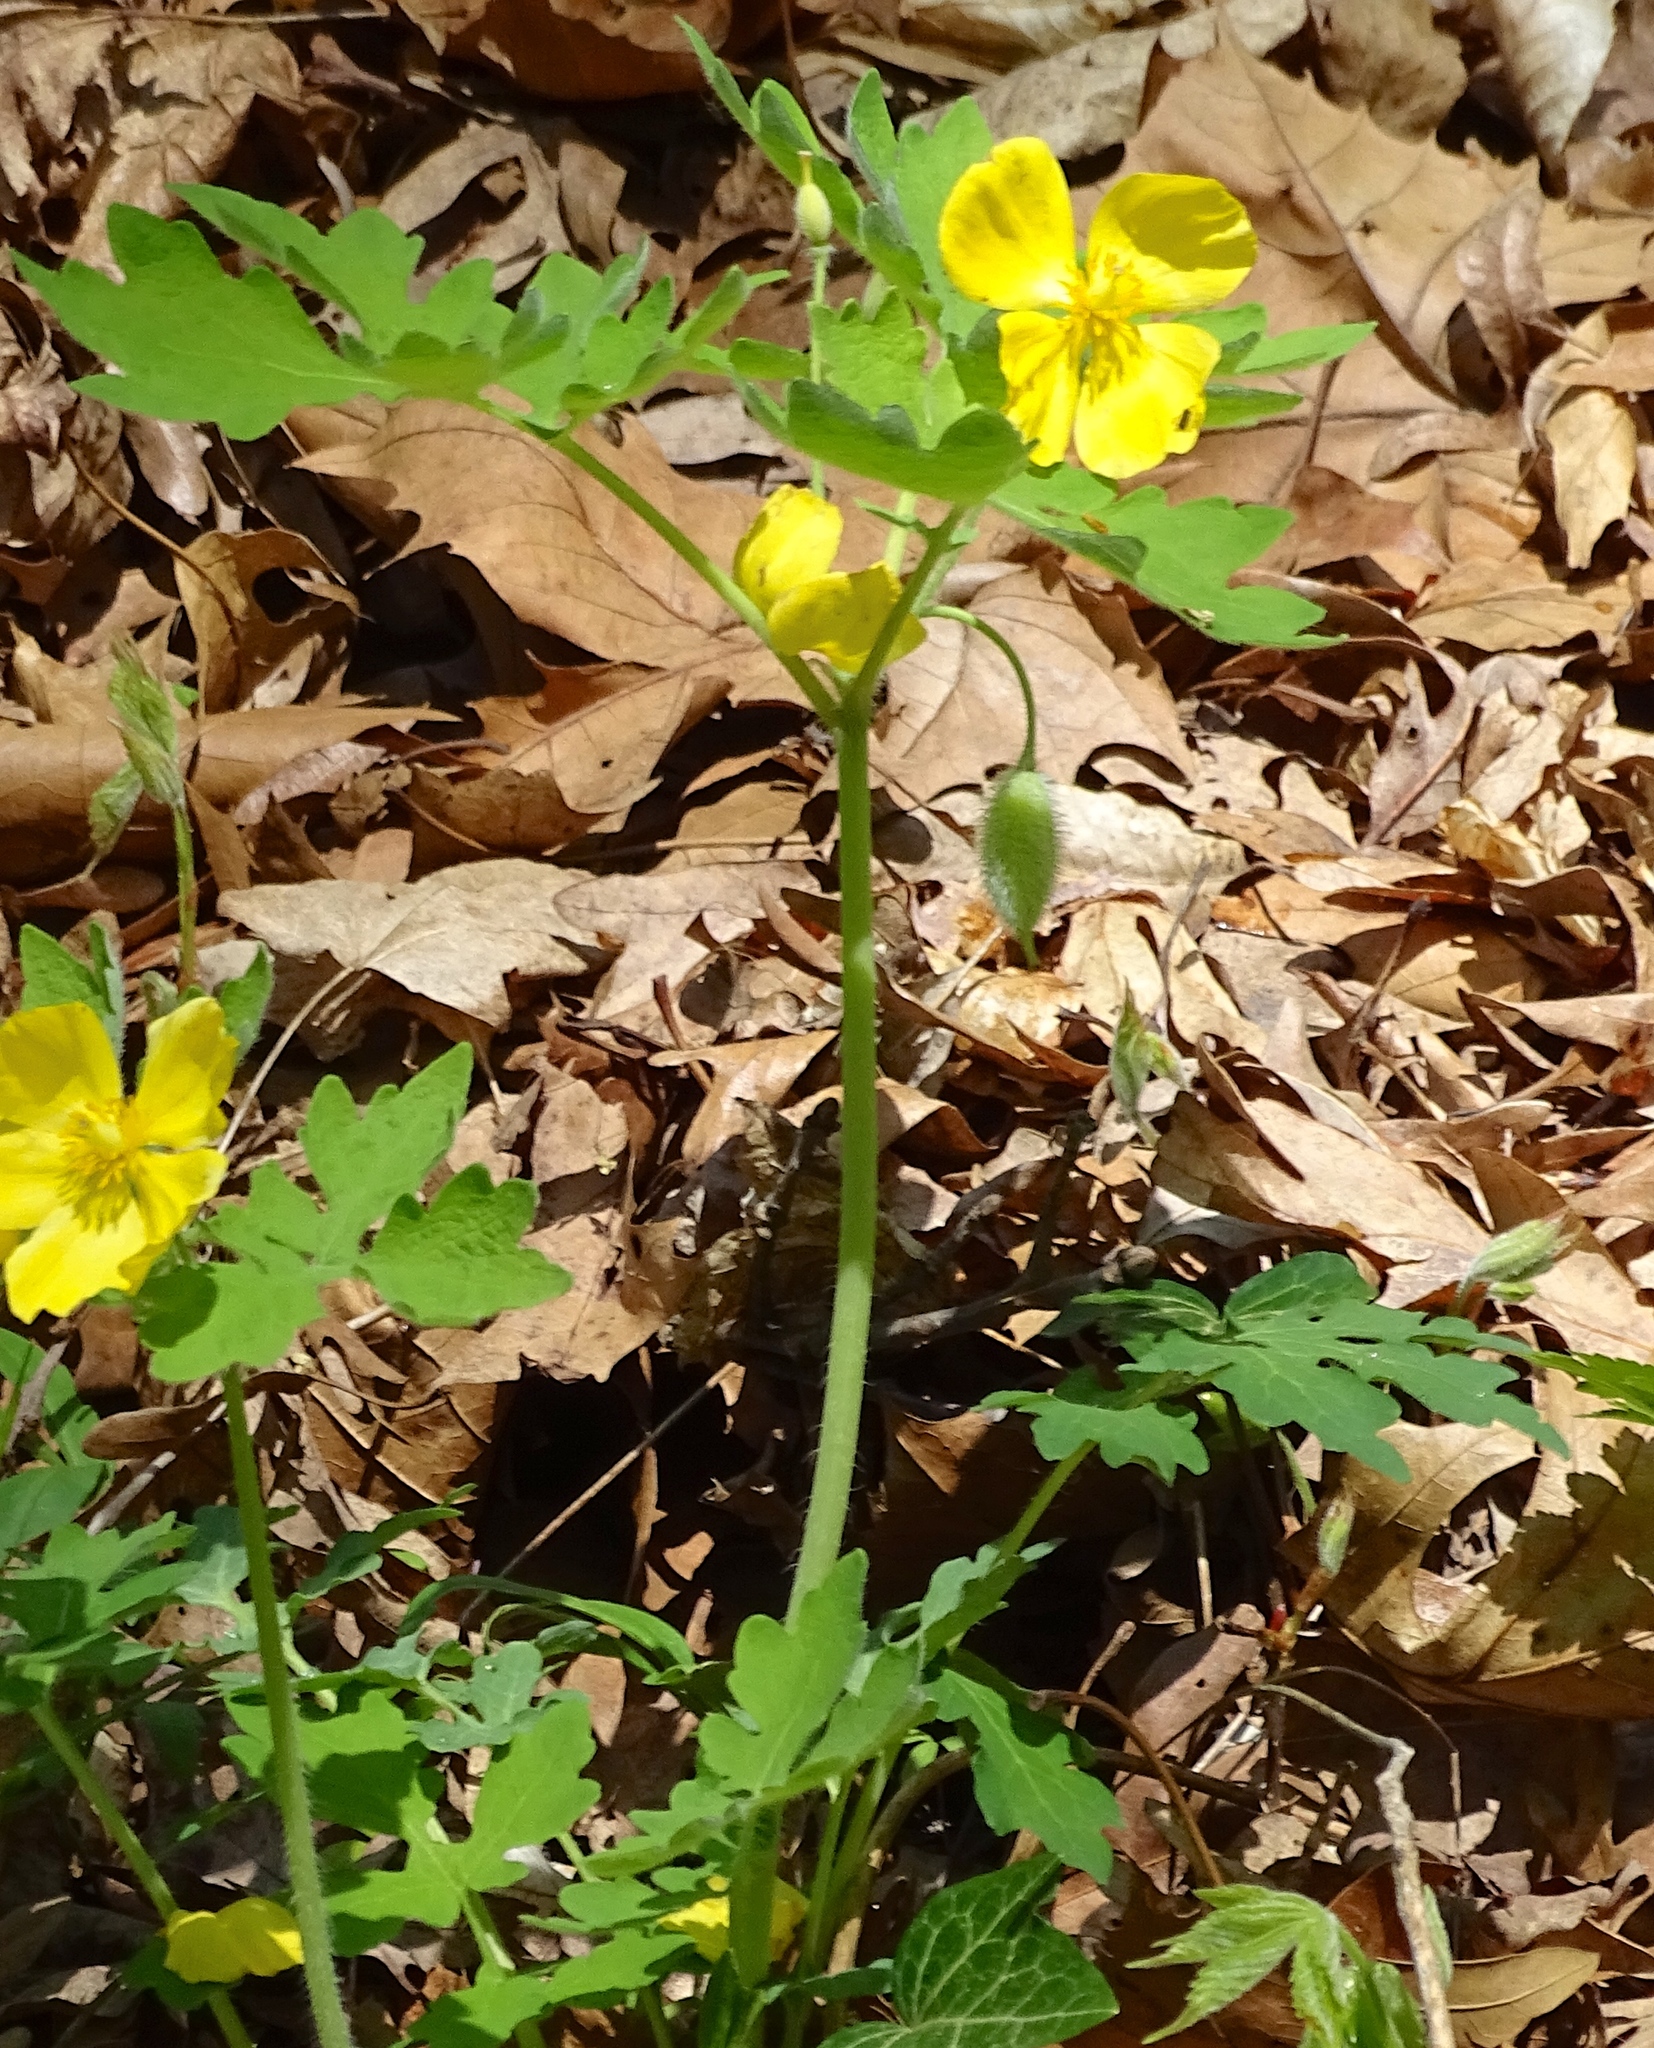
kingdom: Plantae
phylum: Tracheophyta
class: Magnoliopsida
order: Ranunculales
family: Papaveraceae
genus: Stylophorum
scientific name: Stylophorum diphyllum
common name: Celandine poppy
